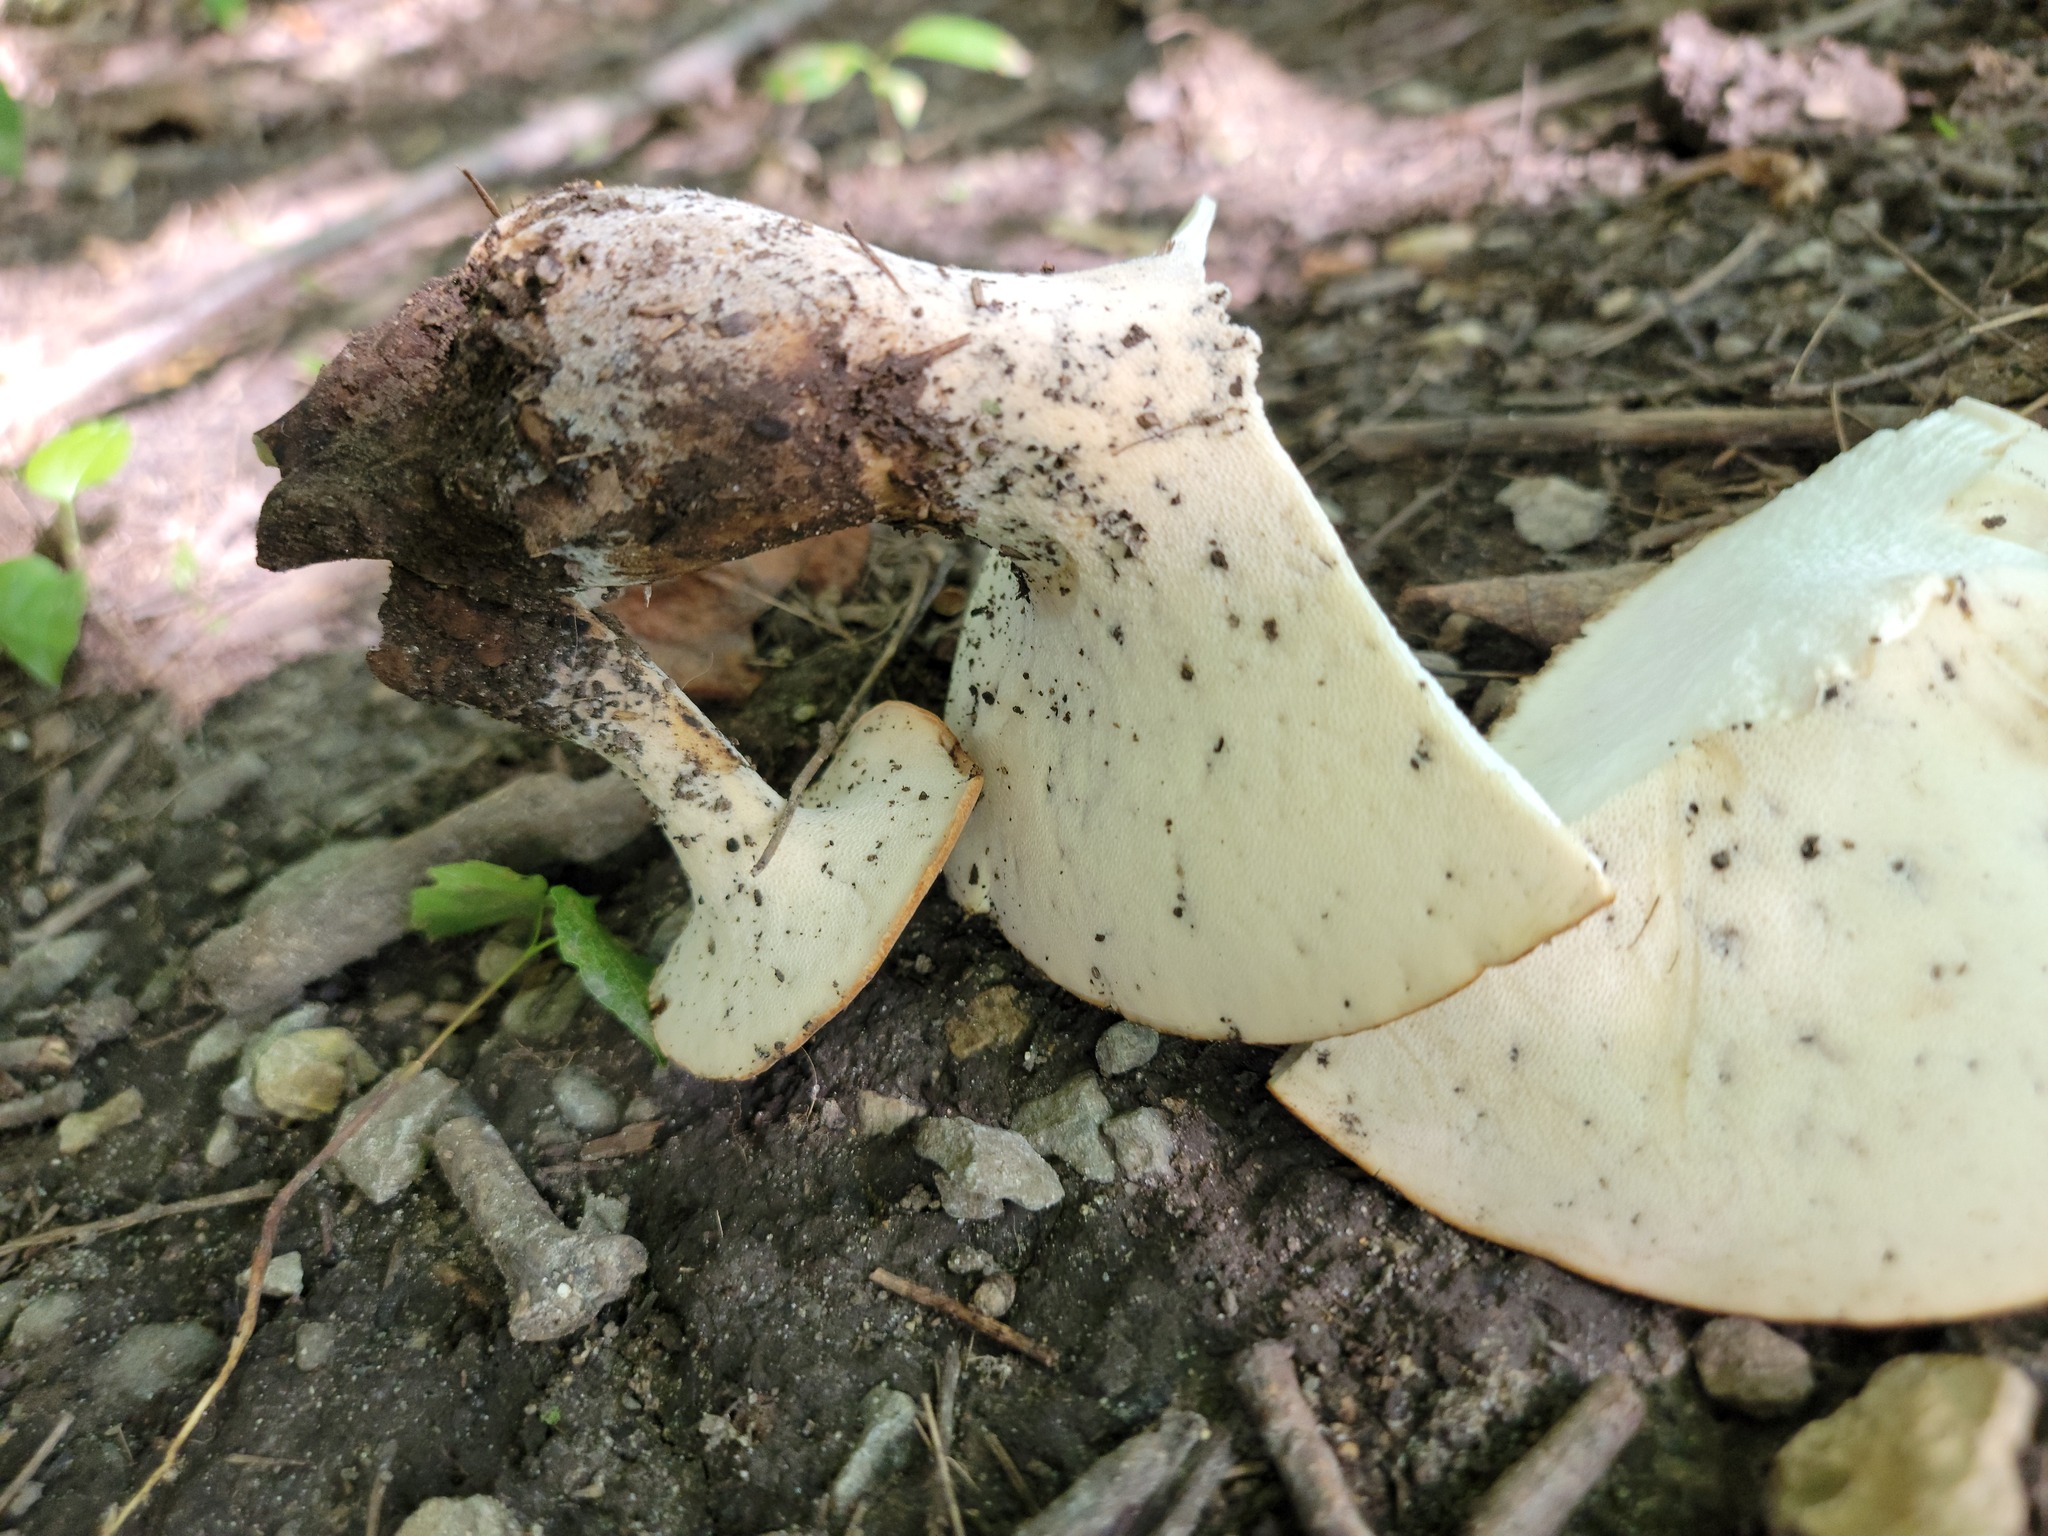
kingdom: Fungi
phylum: Basidiomycota
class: Agaricomycetes
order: Polyporales
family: Polyporaceae
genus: Polyporus
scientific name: Polyporus radicatus
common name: Rooting polypore
